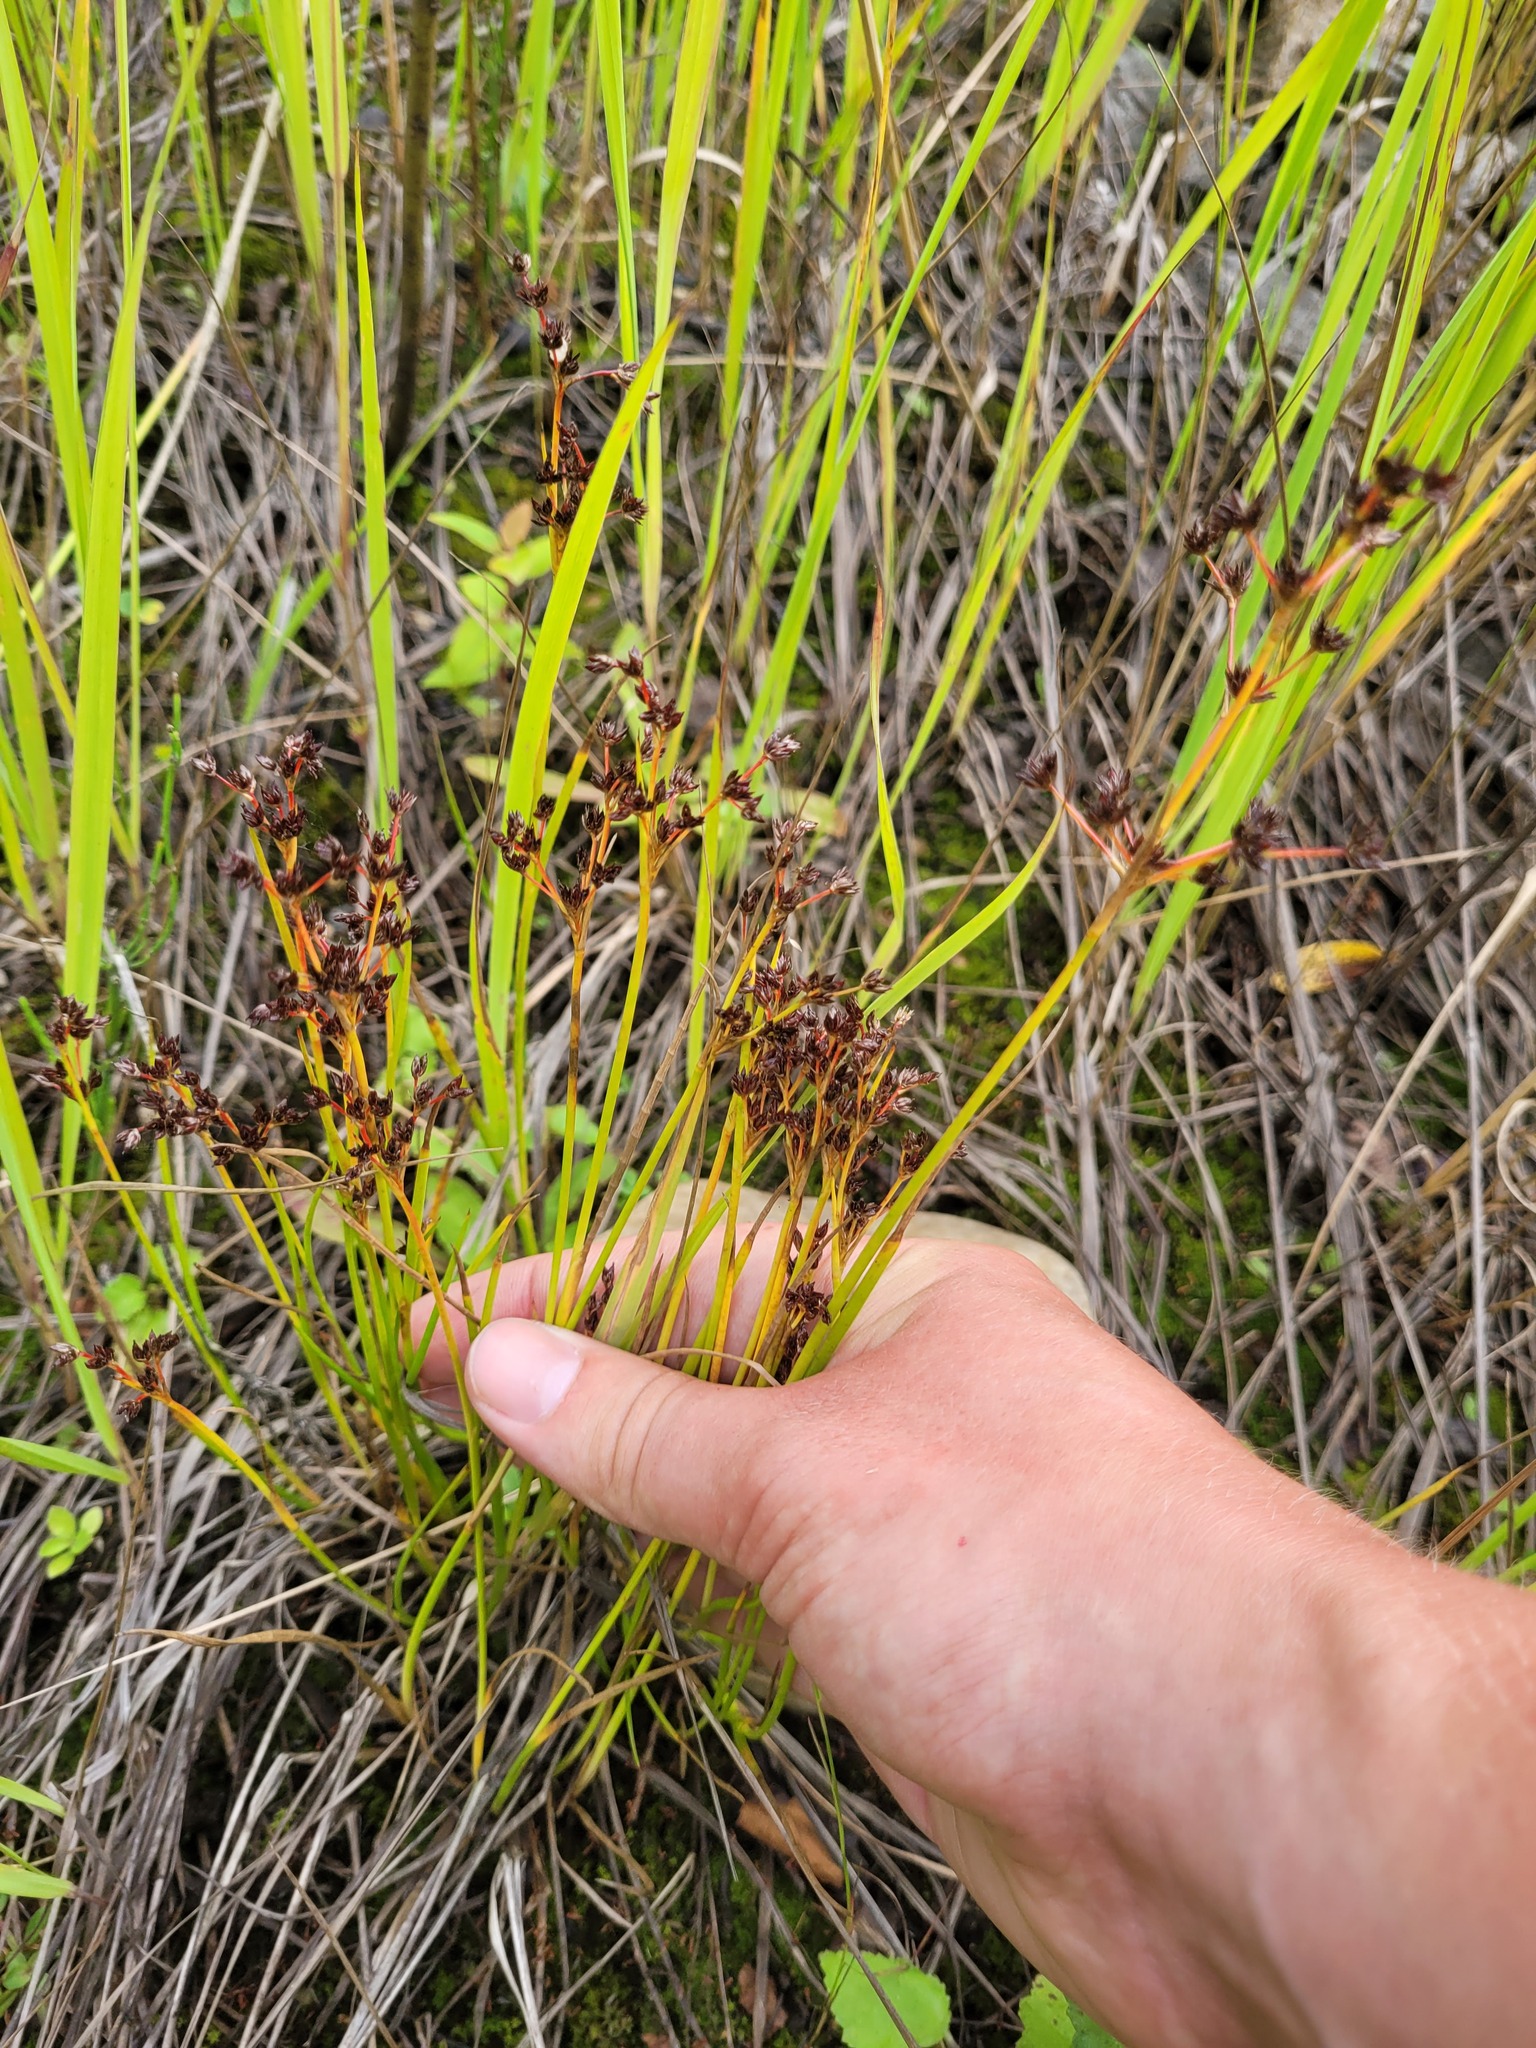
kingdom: Plantae
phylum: Tracheophyta
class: Liliopsida
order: Poales
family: Juncaceae
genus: Juncus
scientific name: Juncus articulatus
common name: Jointed rush
